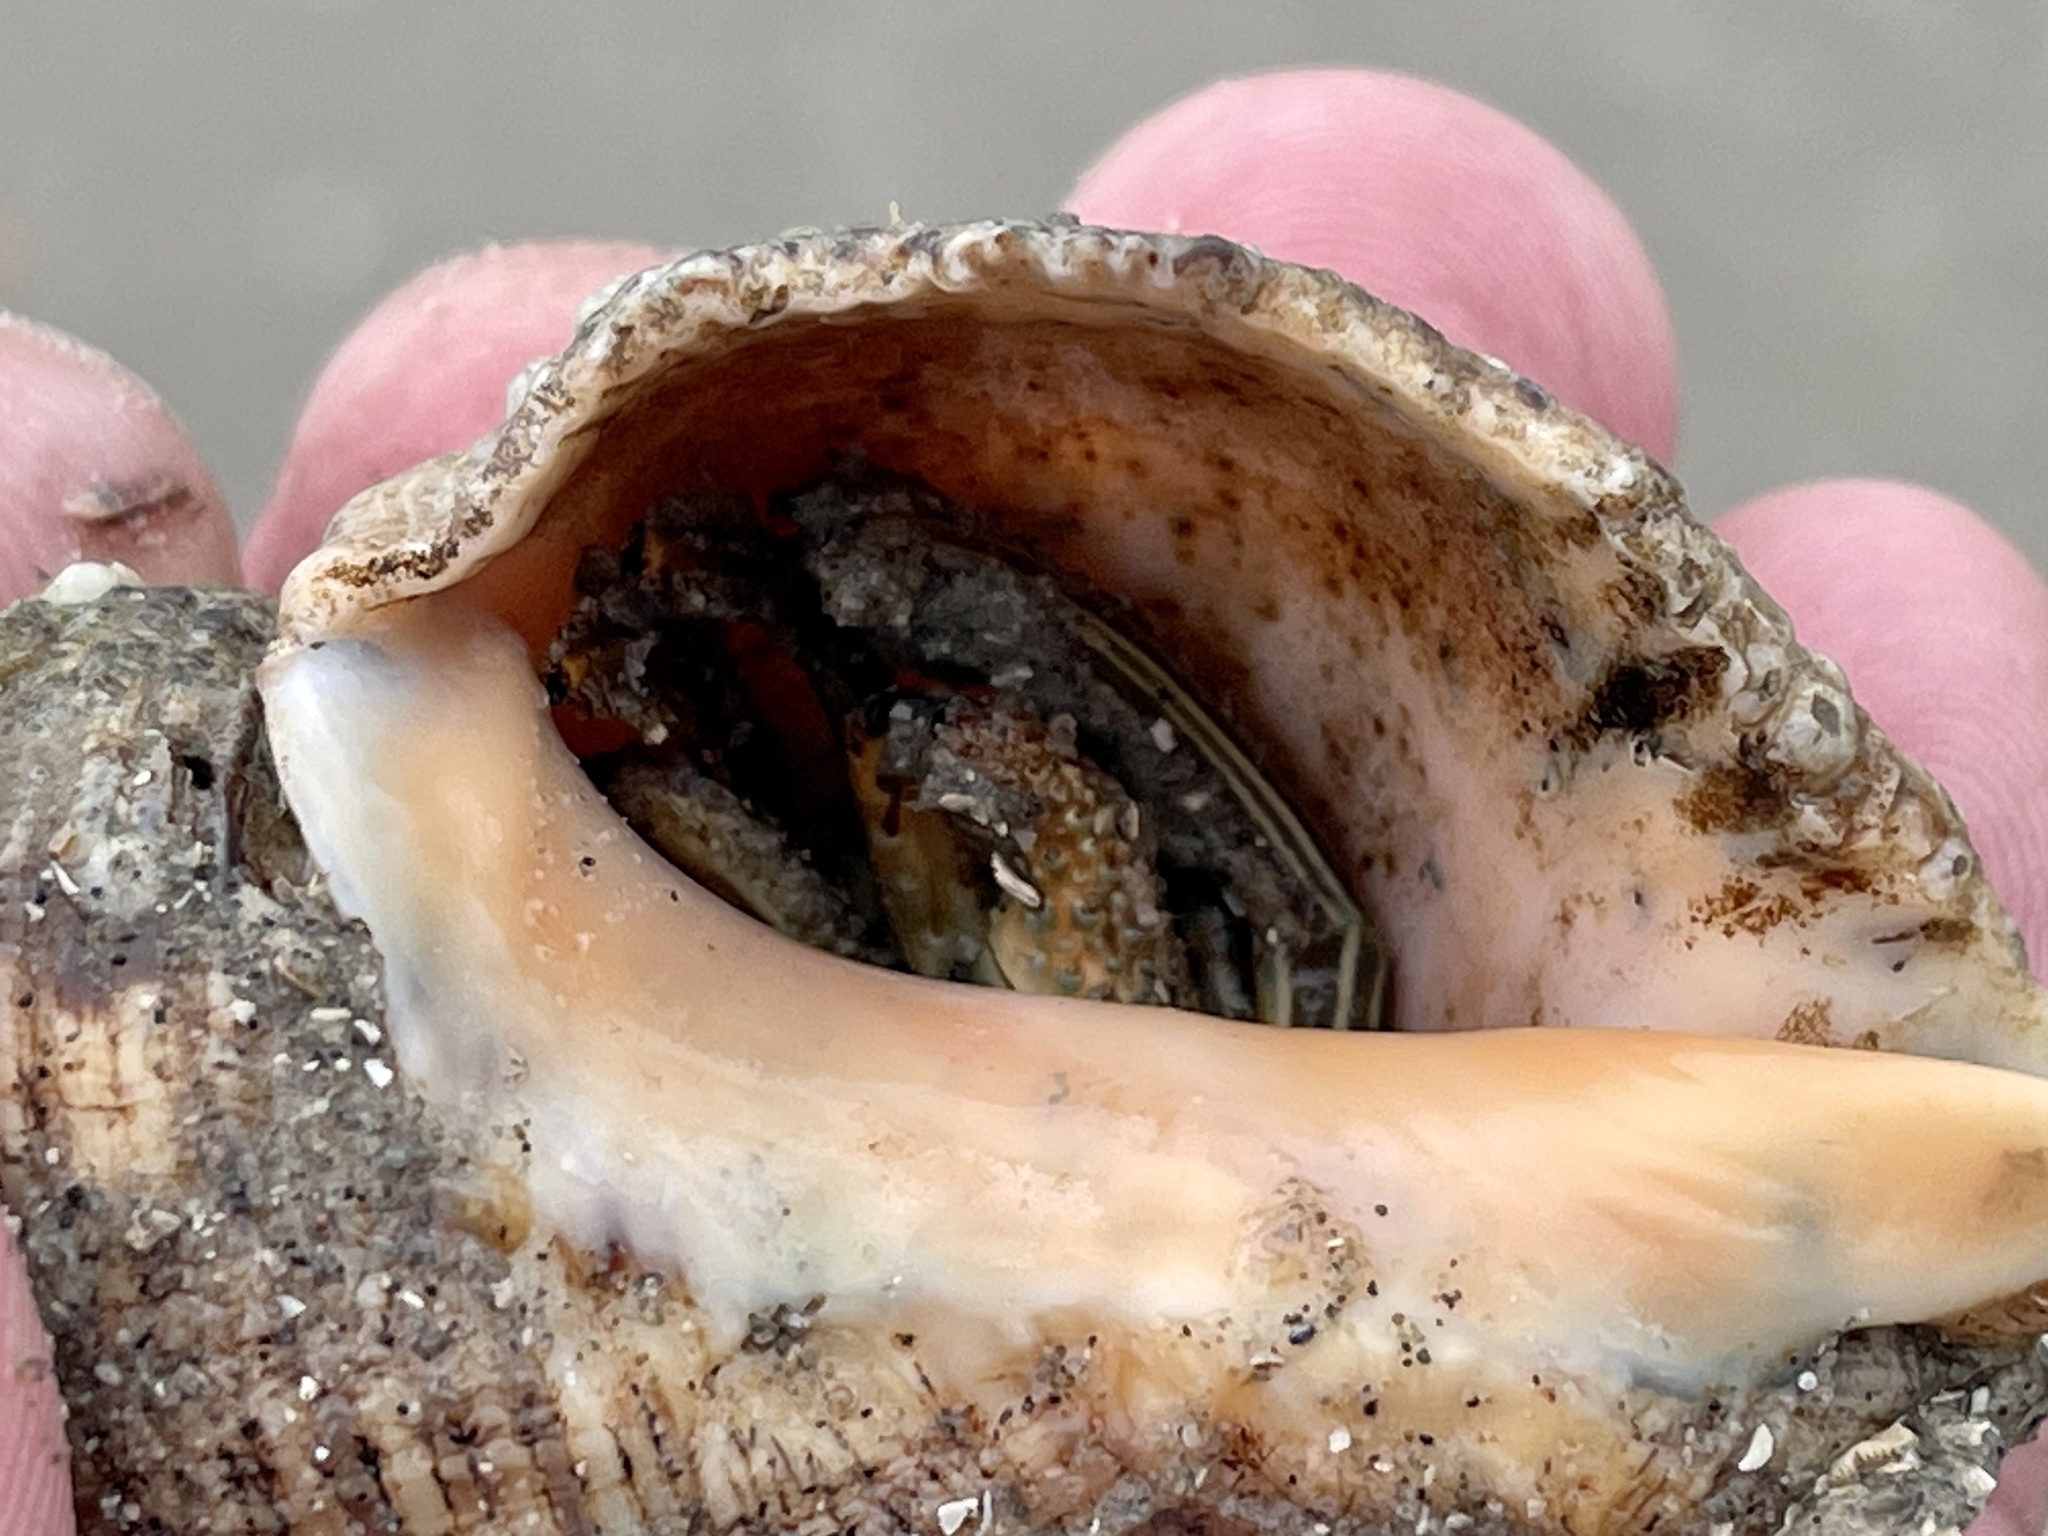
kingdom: Animalia
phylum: Arthropoda
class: Malacostraca
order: Decapoda
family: Diogenidae
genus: Clibanarius
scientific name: Clibanarius vittatus
